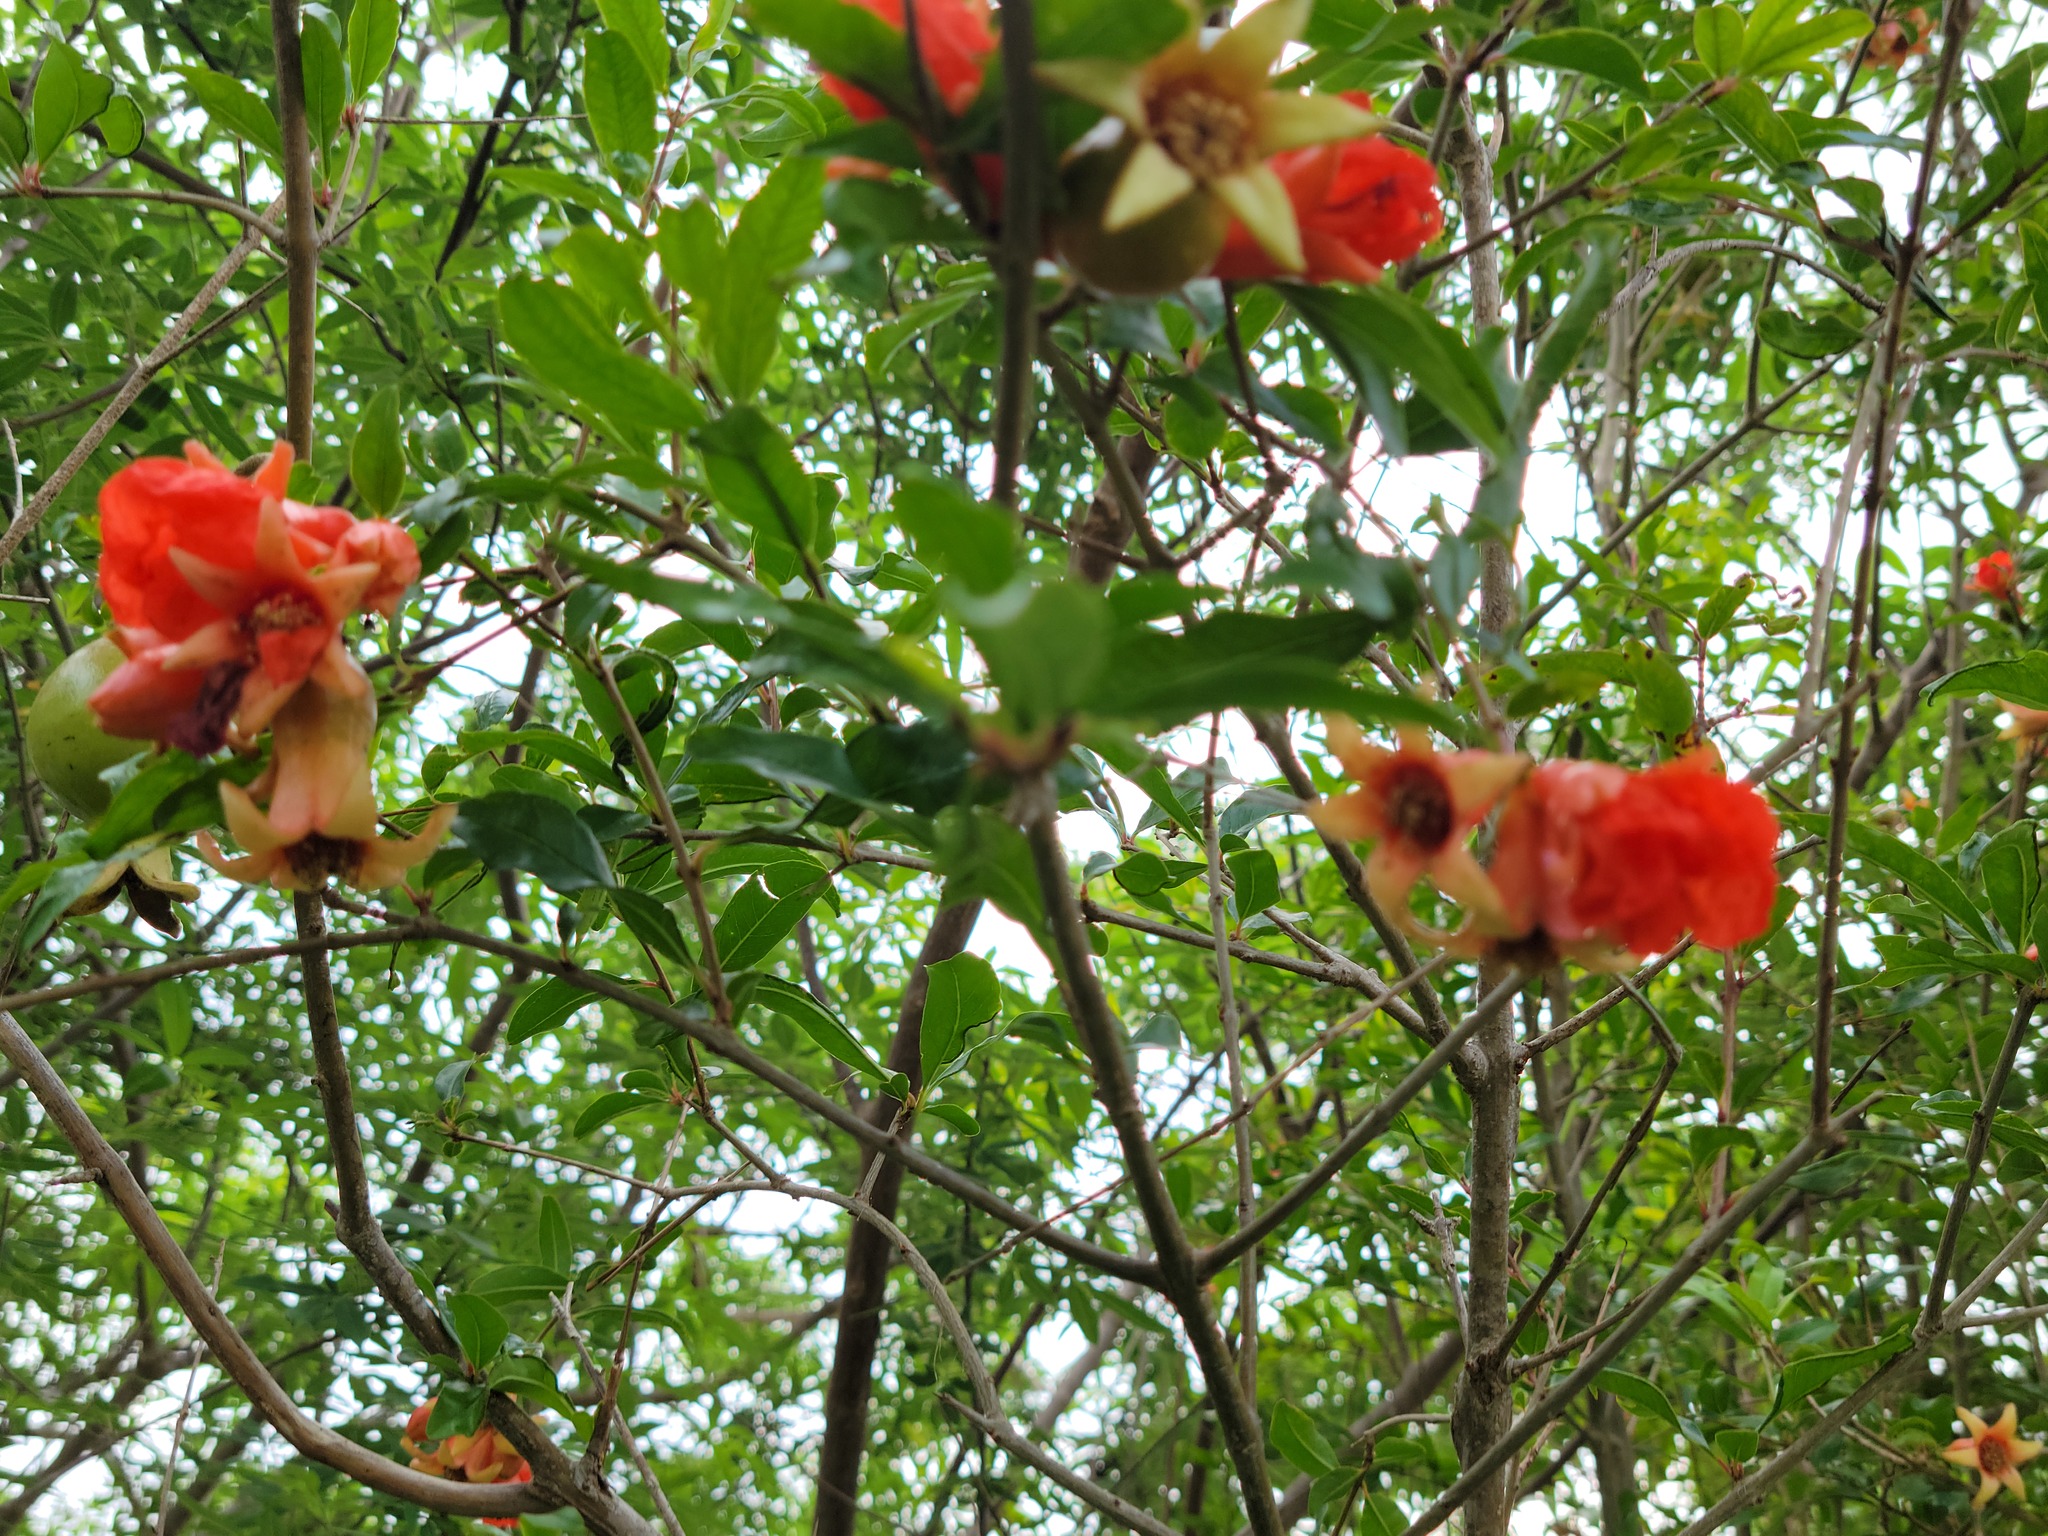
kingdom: Plantae
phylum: Tracheophyta
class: Magnoliopsida
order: Myrtales
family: Lythraceae
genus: Punica
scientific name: Punica granatum
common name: Pomegranate
